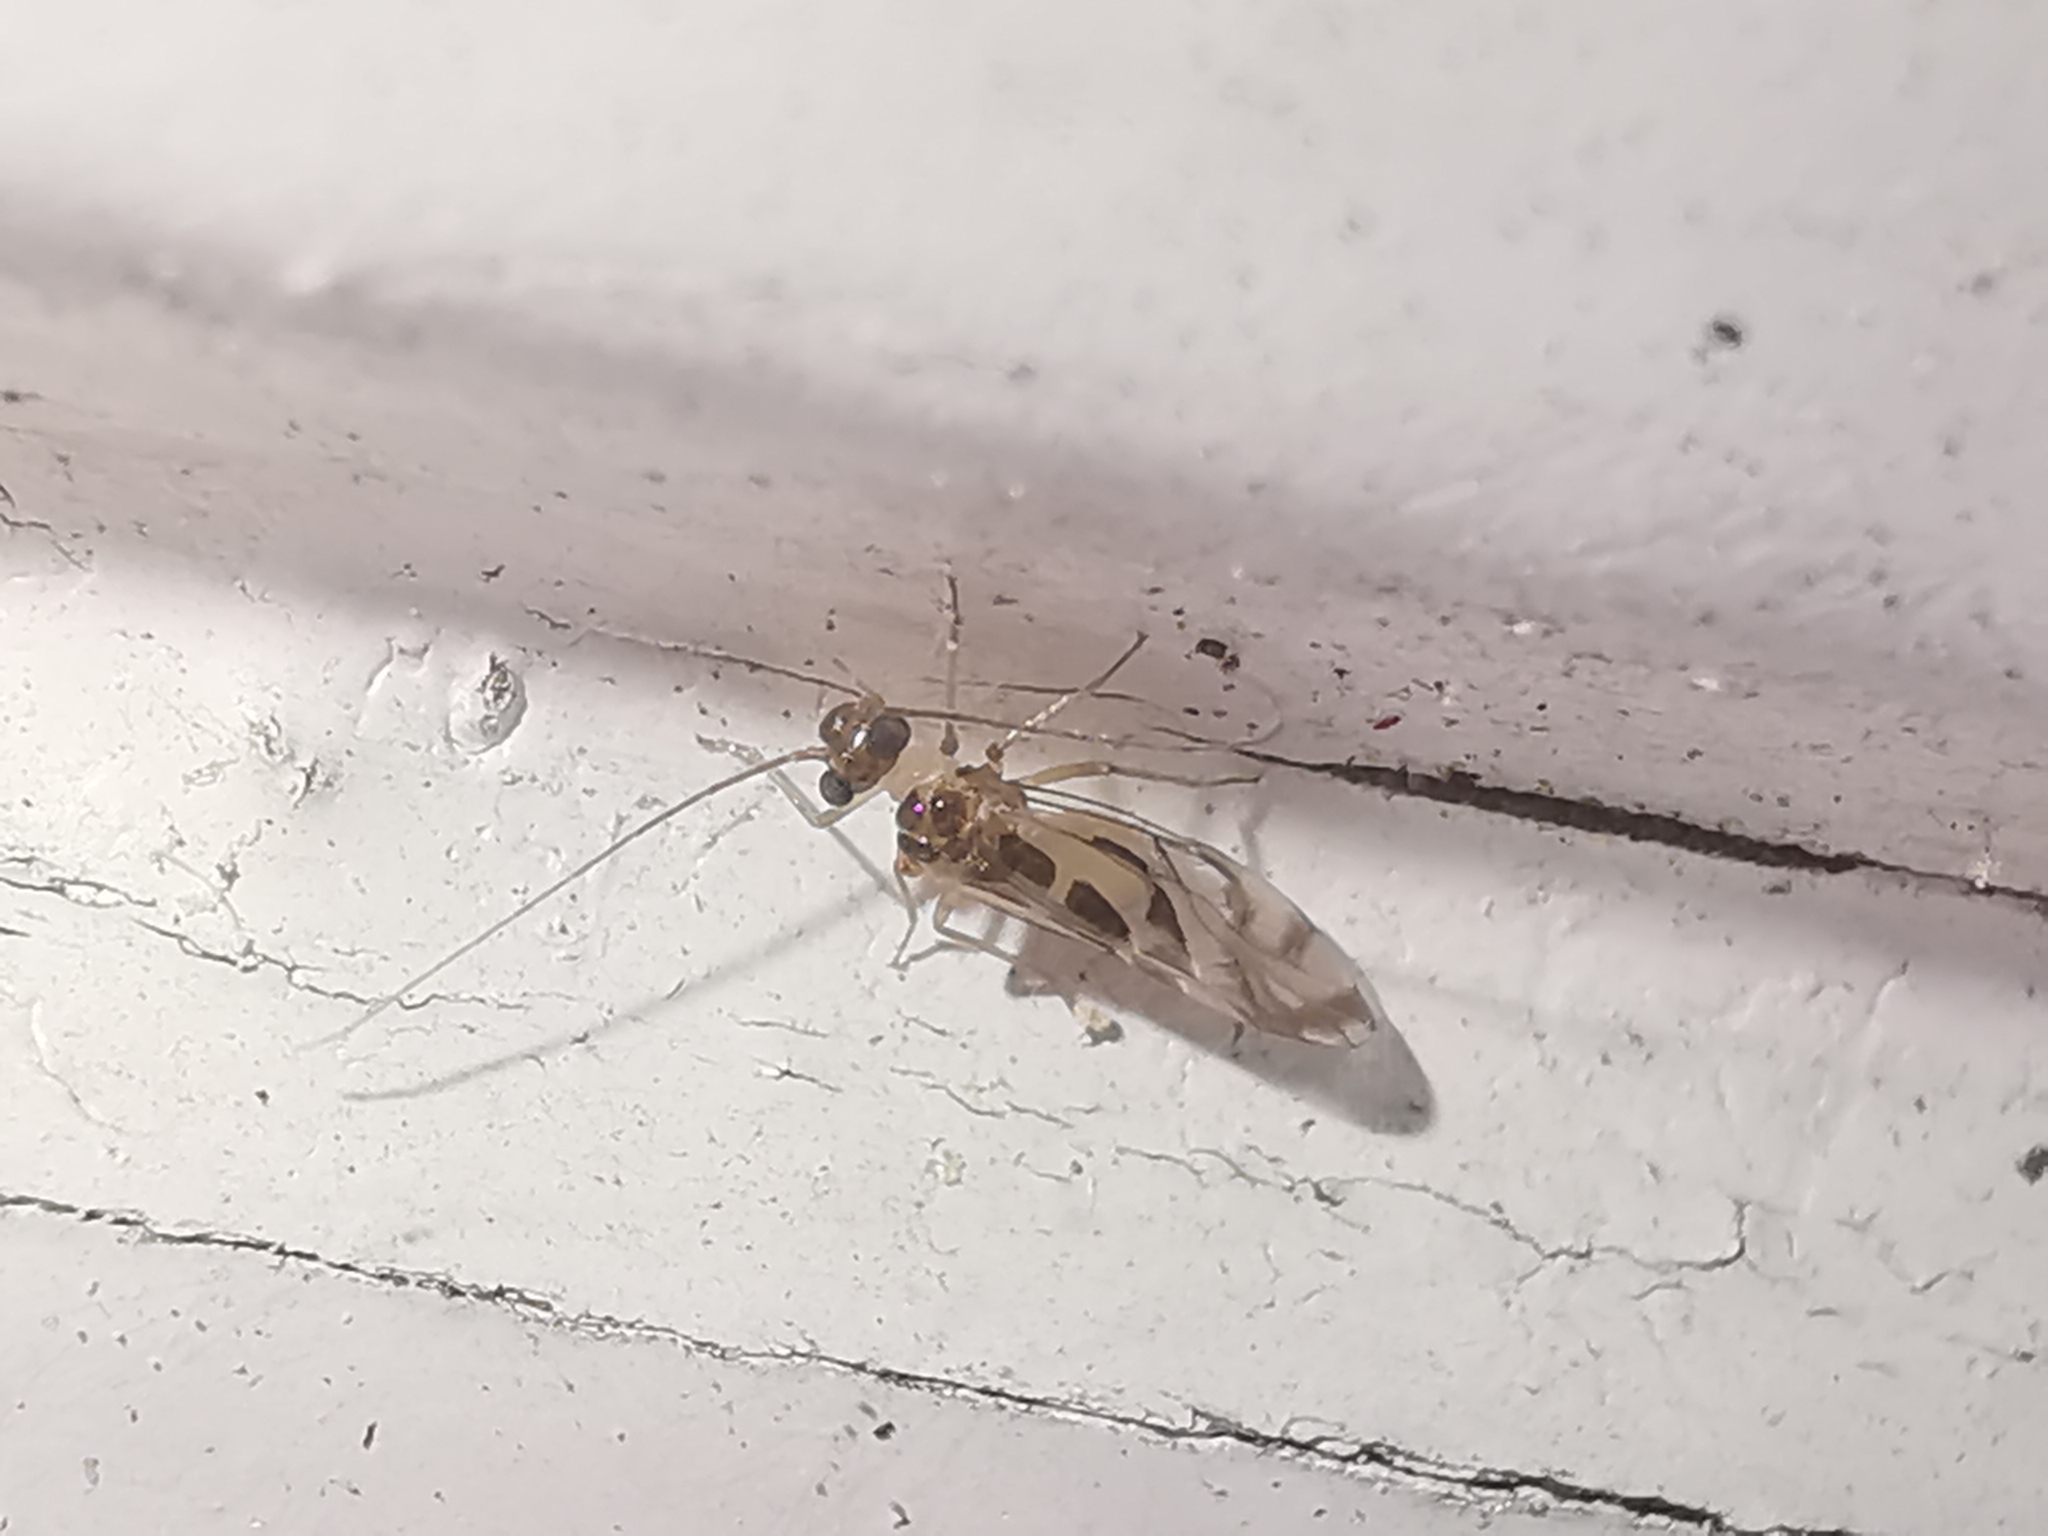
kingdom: Animalia
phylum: Arthropoda
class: Insecta
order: Psocodea
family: Stenopsocidae
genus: Graphopsocus
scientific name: Graphopsocus cruciatus
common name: Lizard bark louse
